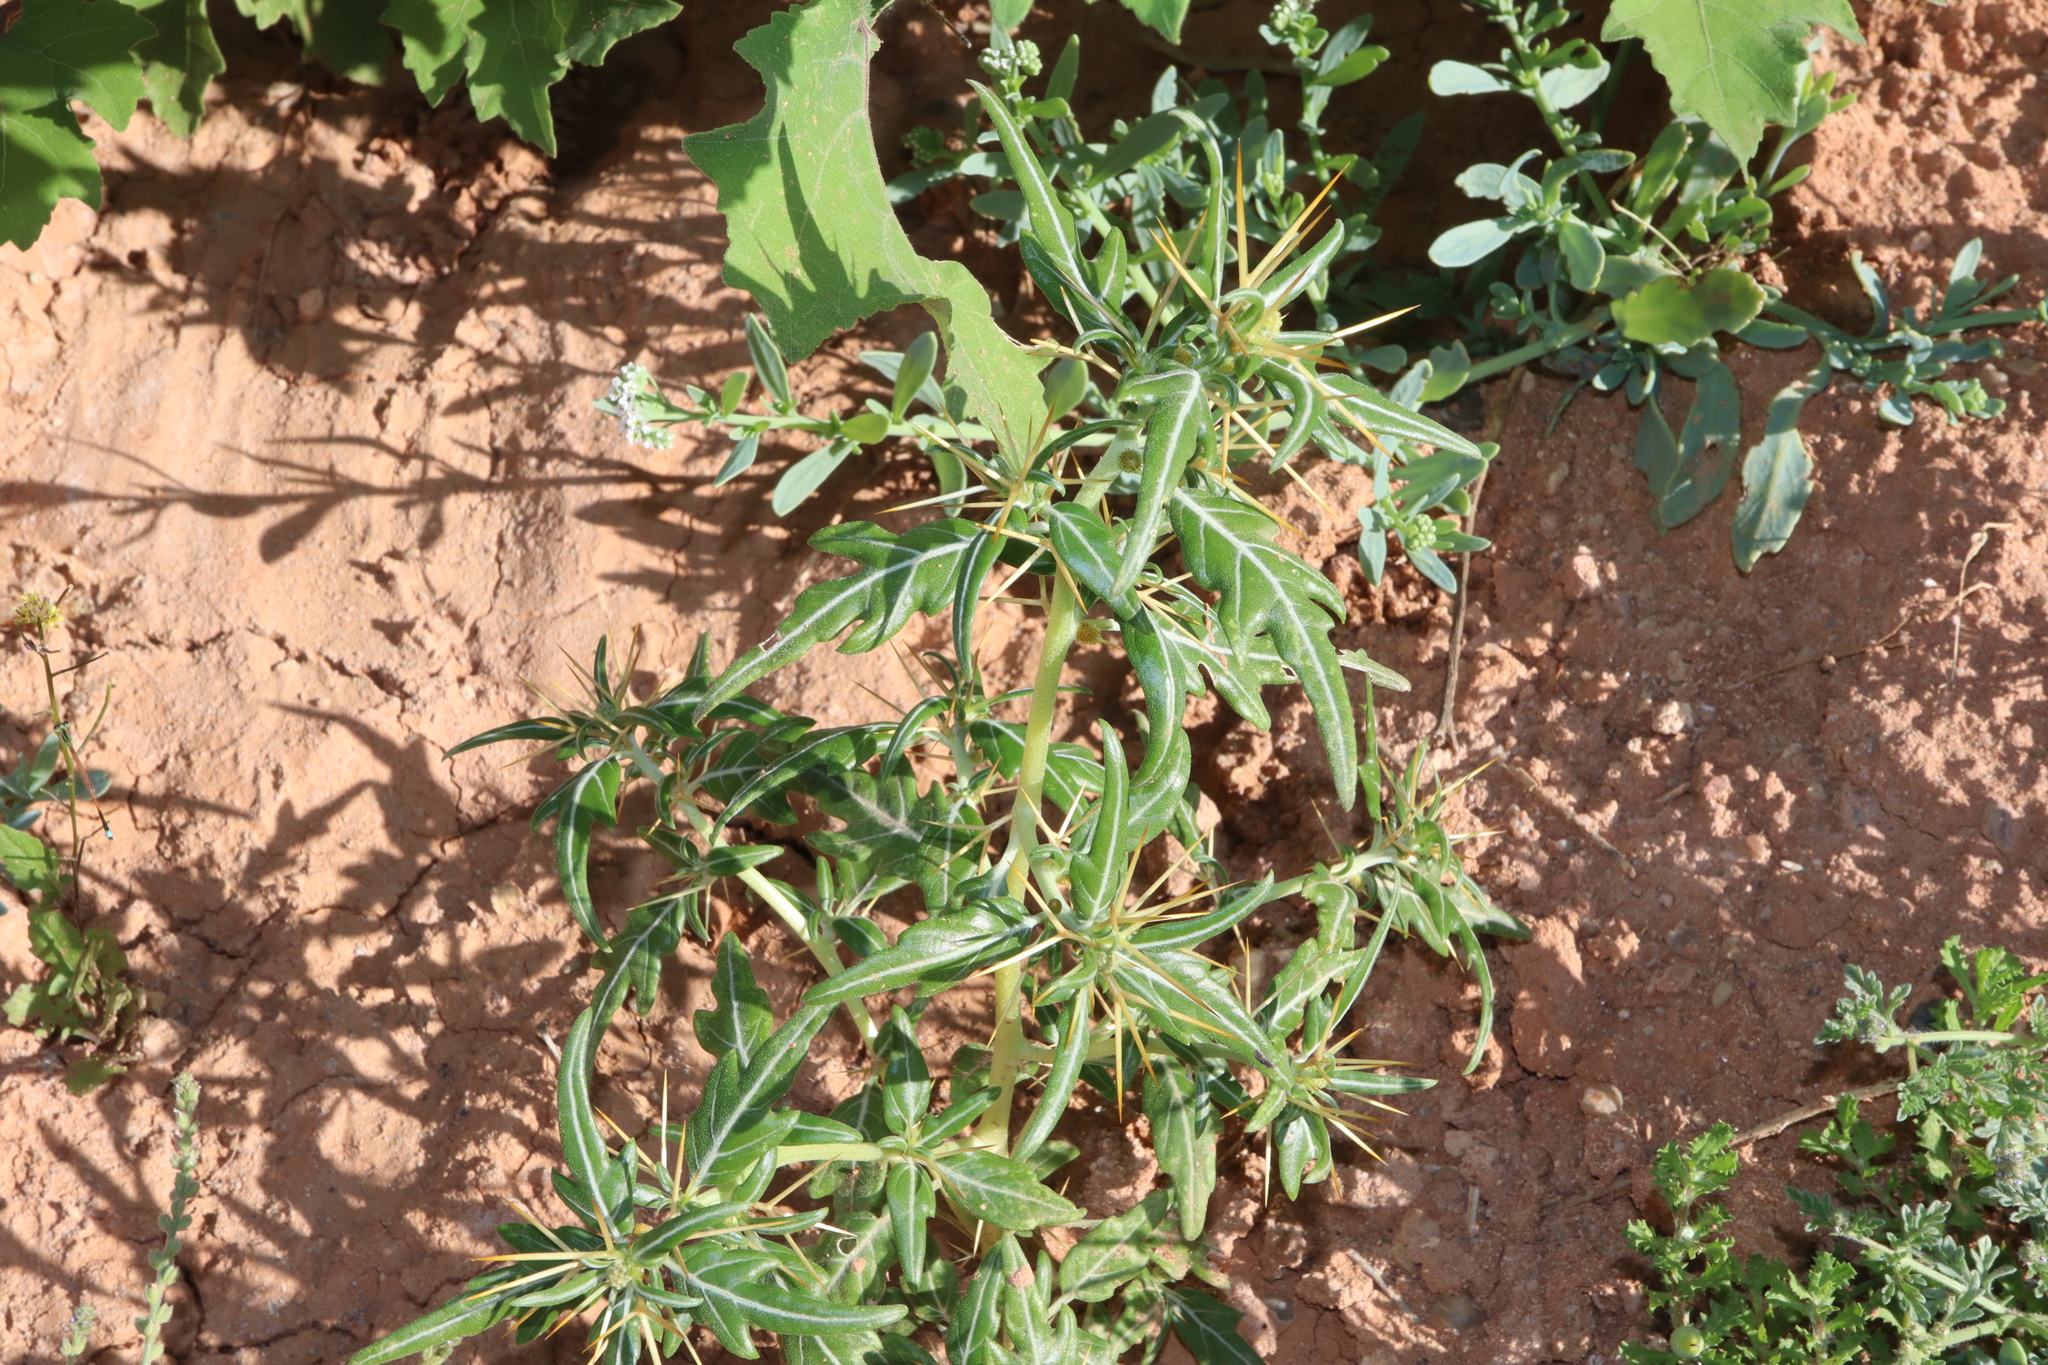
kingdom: Plantae
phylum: Tracheophyta
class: Magnoliopsida
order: Asterales
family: Asteraceae
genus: Xanthium
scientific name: Xanthium spinosum
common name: Spiny cocklebur
